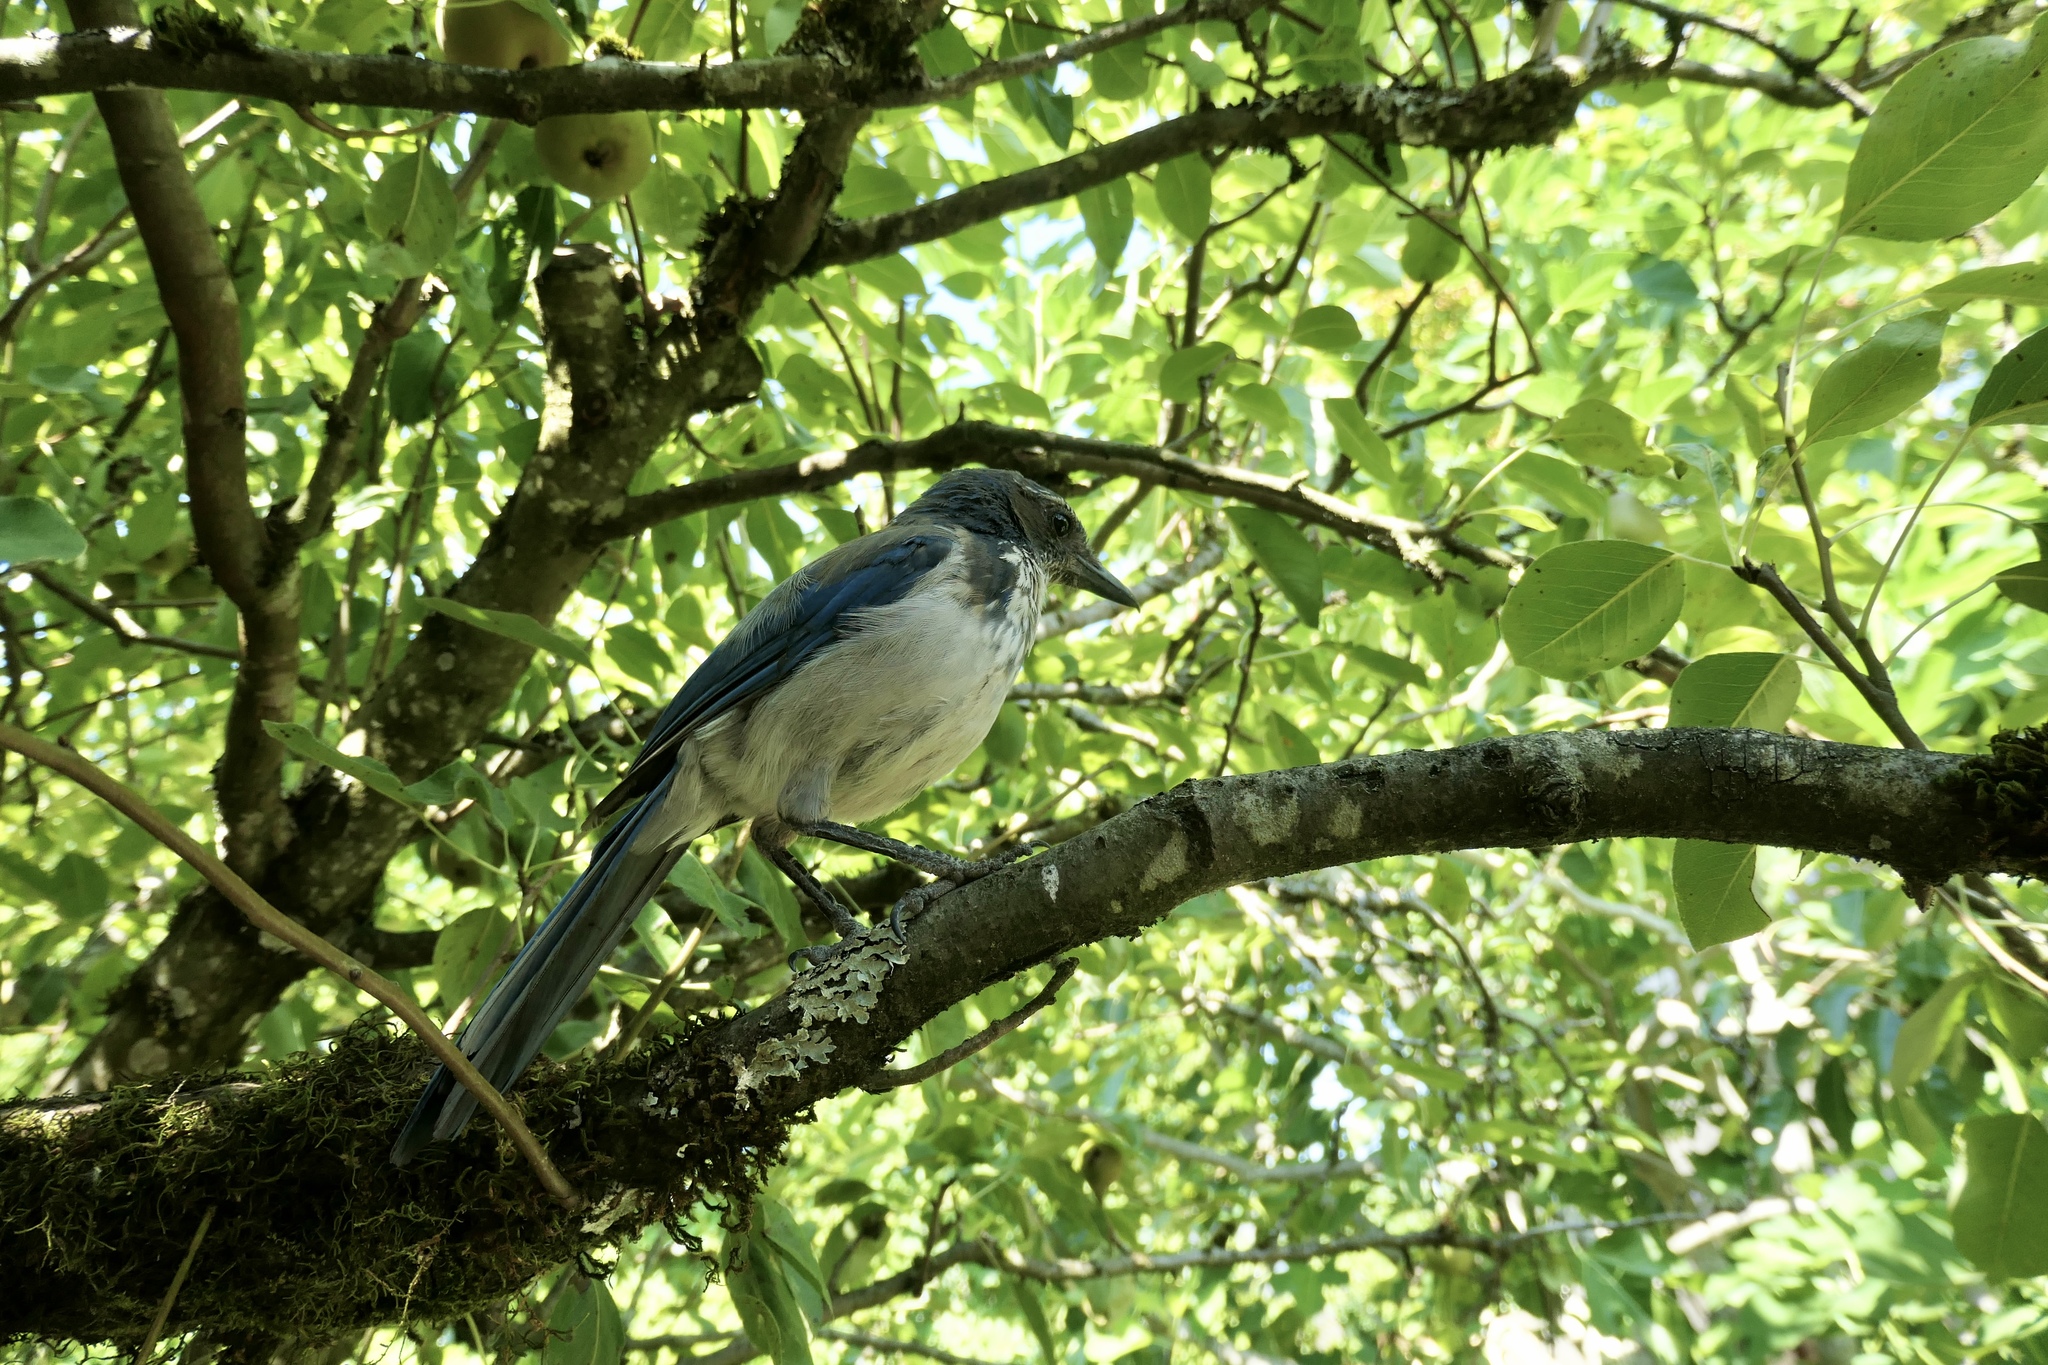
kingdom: Animalia
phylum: Chordata
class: Aves
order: Passeriformes
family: Corvidae
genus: Aphelocoma
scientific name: Aphelocoma californica
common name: California scrub-jay
